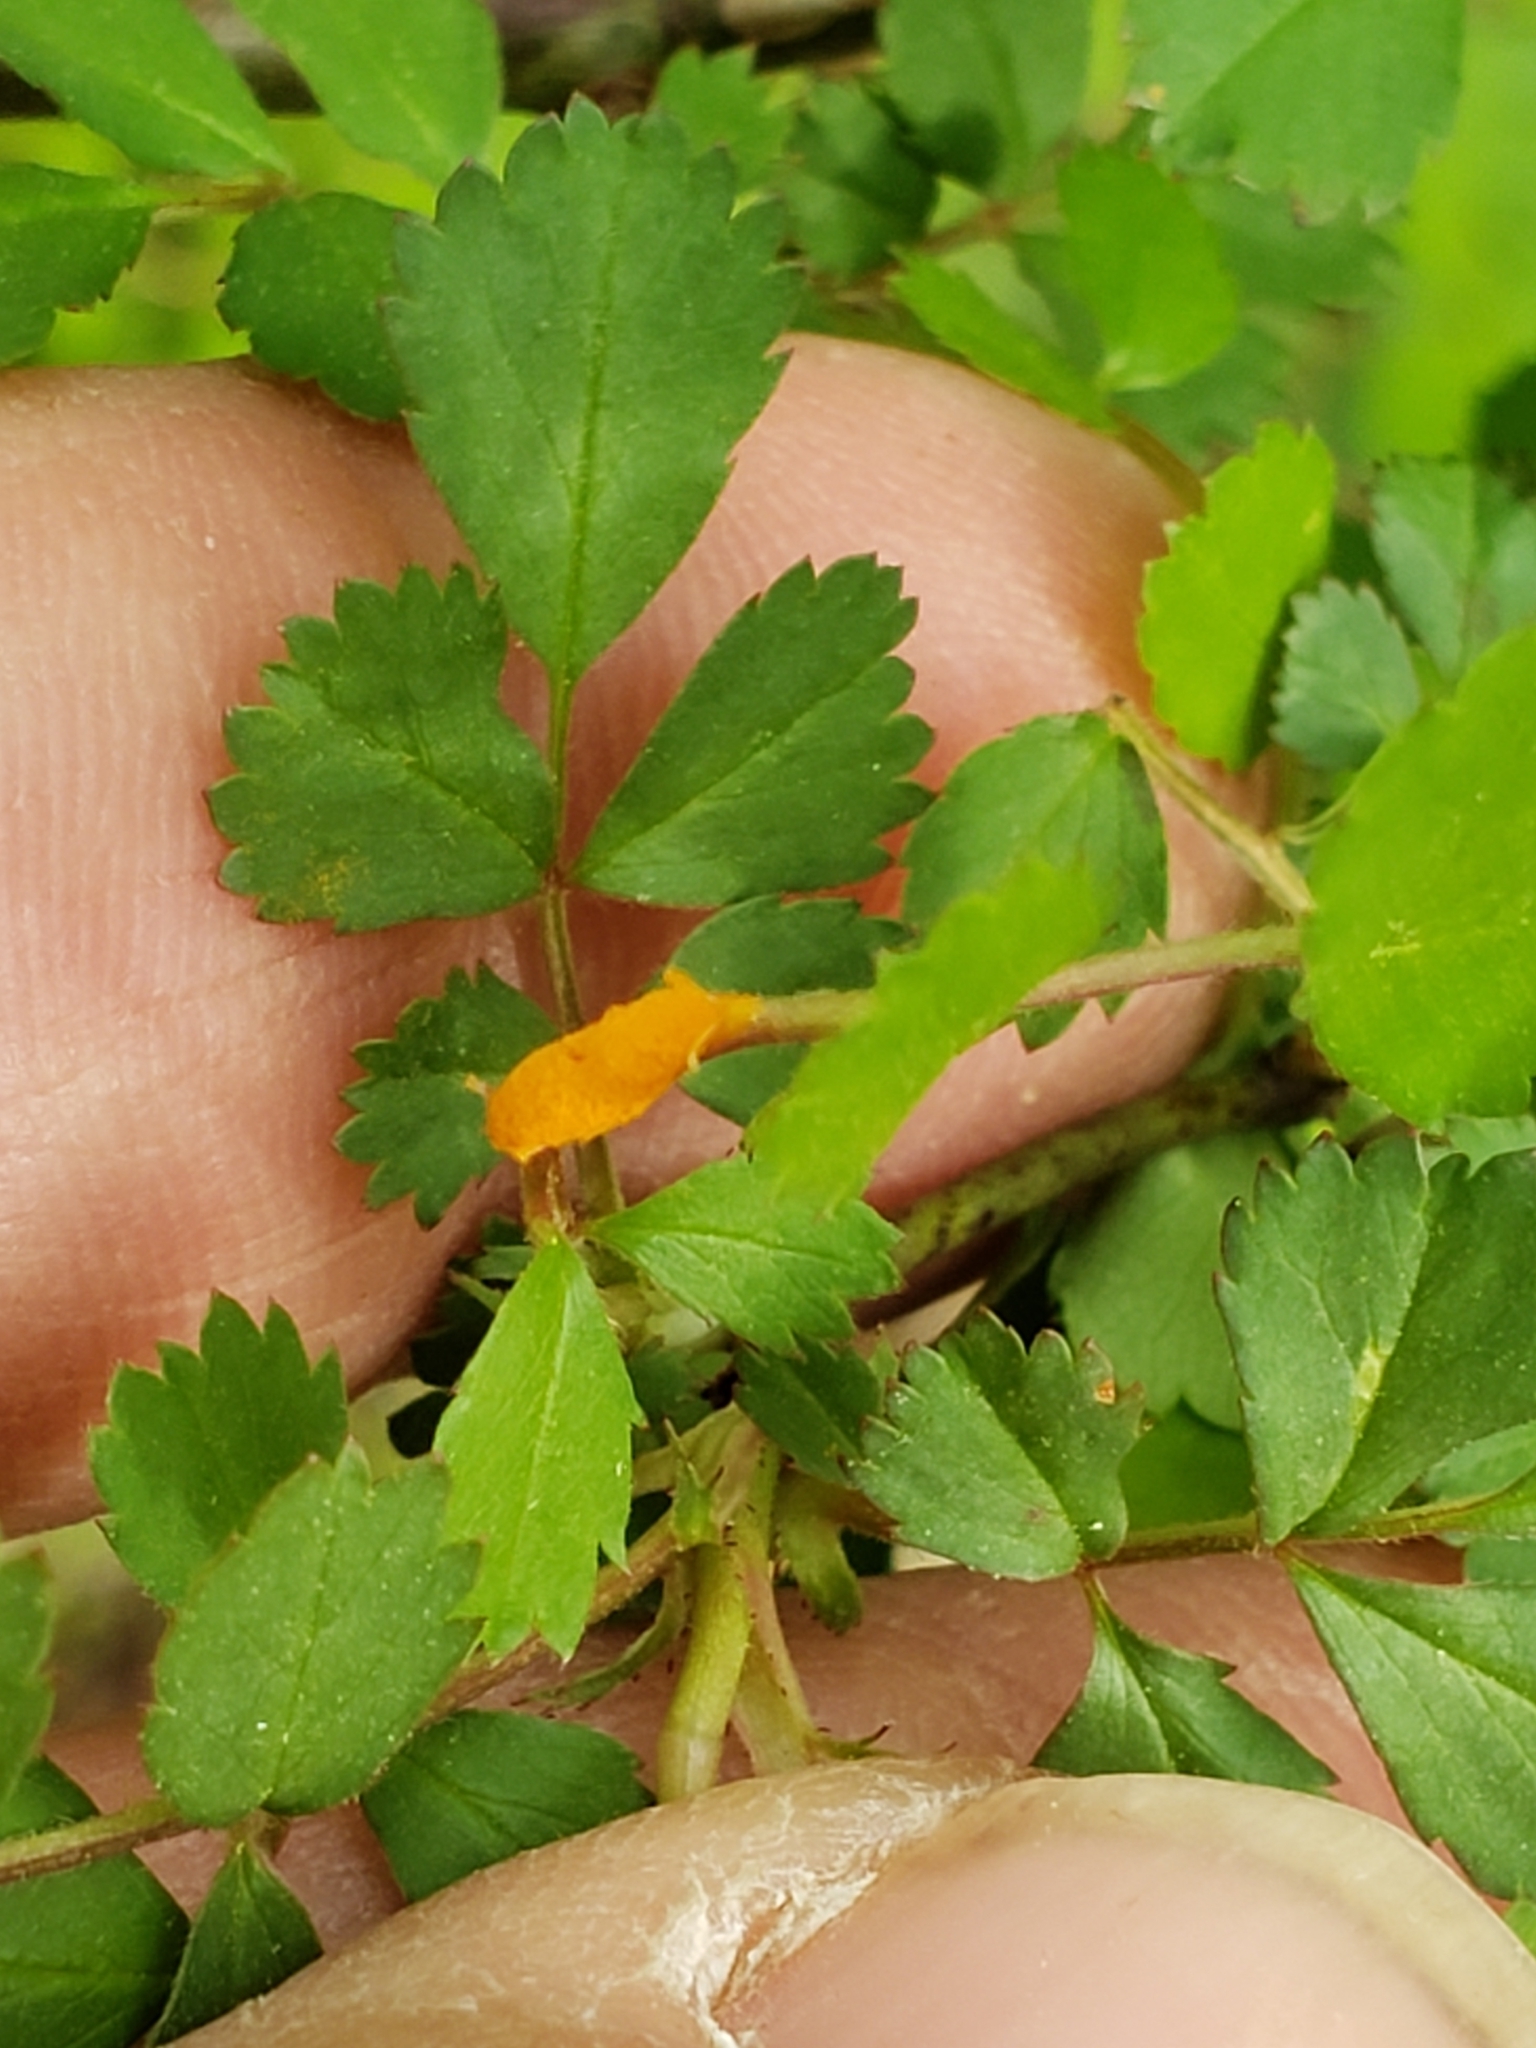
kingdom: Fungi
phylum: Basidiomycota
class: Pucciniomycetes
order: Pucciniales
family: Phragmidiaceae
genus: Phragmidium
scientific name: Phragmidium rosae-multiflorae
